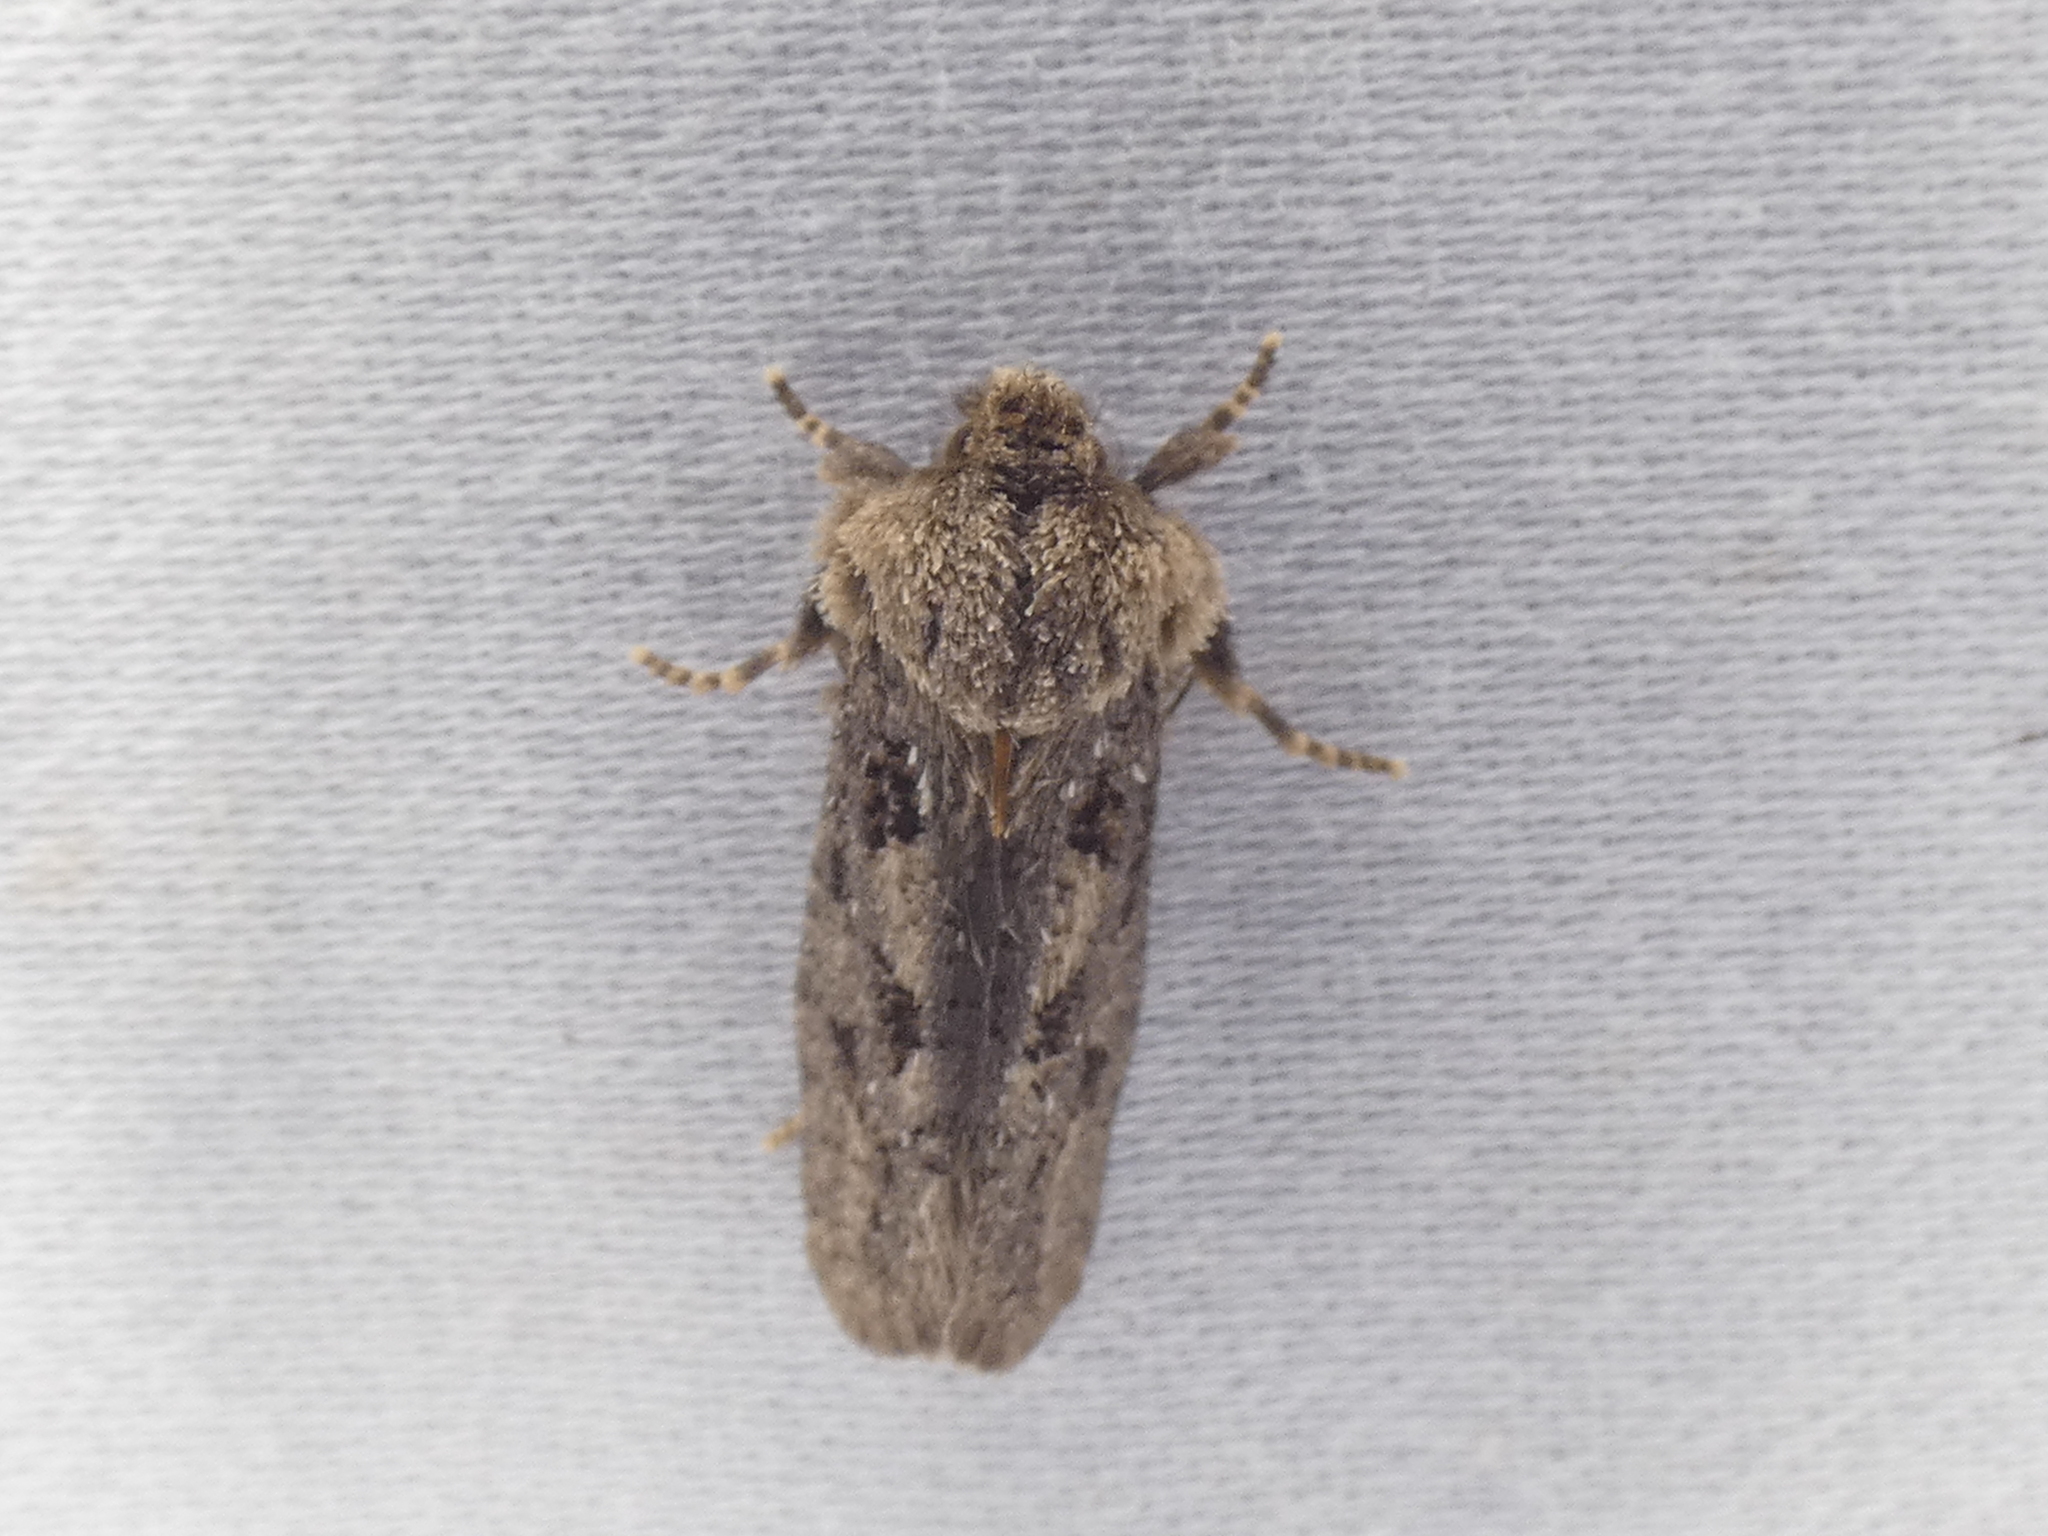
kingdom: Animalia
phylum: Arthropoda
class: Insecta
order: Lepidoptera
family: Tineidae
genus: Acrolophus
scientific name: Acrolophus arcanella
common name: Arcane grass tubeworm moth
